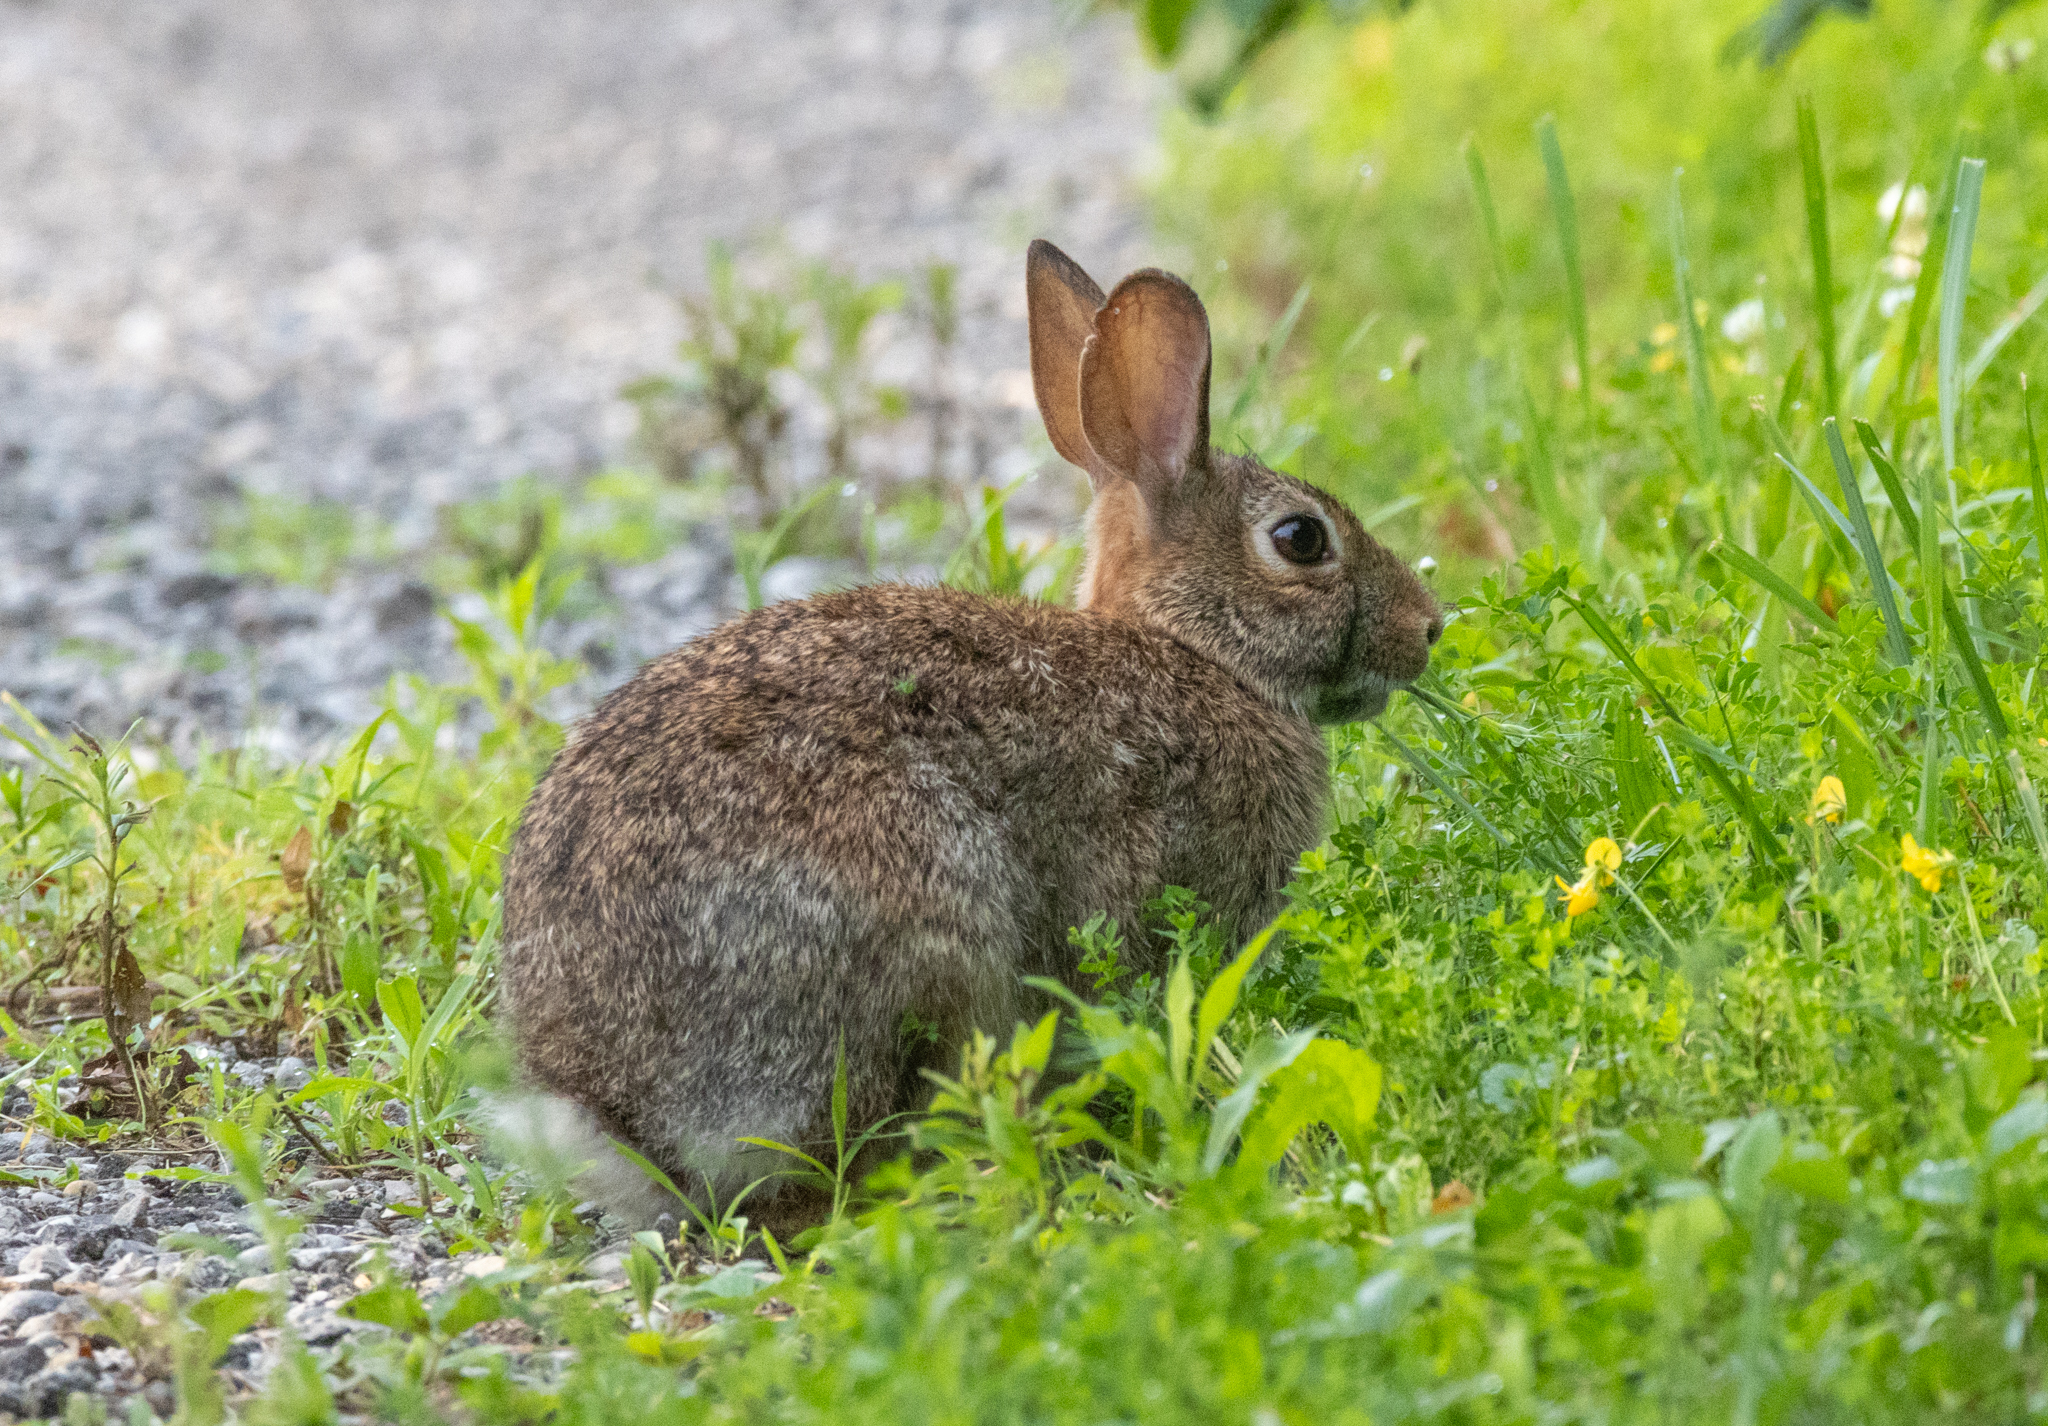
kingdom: Animalia
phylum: Chordata
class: Mammalia
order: Lagomorpha
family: Leporidae
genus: Sylvilagus
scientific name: Sylvilagus floridanus
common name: Eastern cottontail
